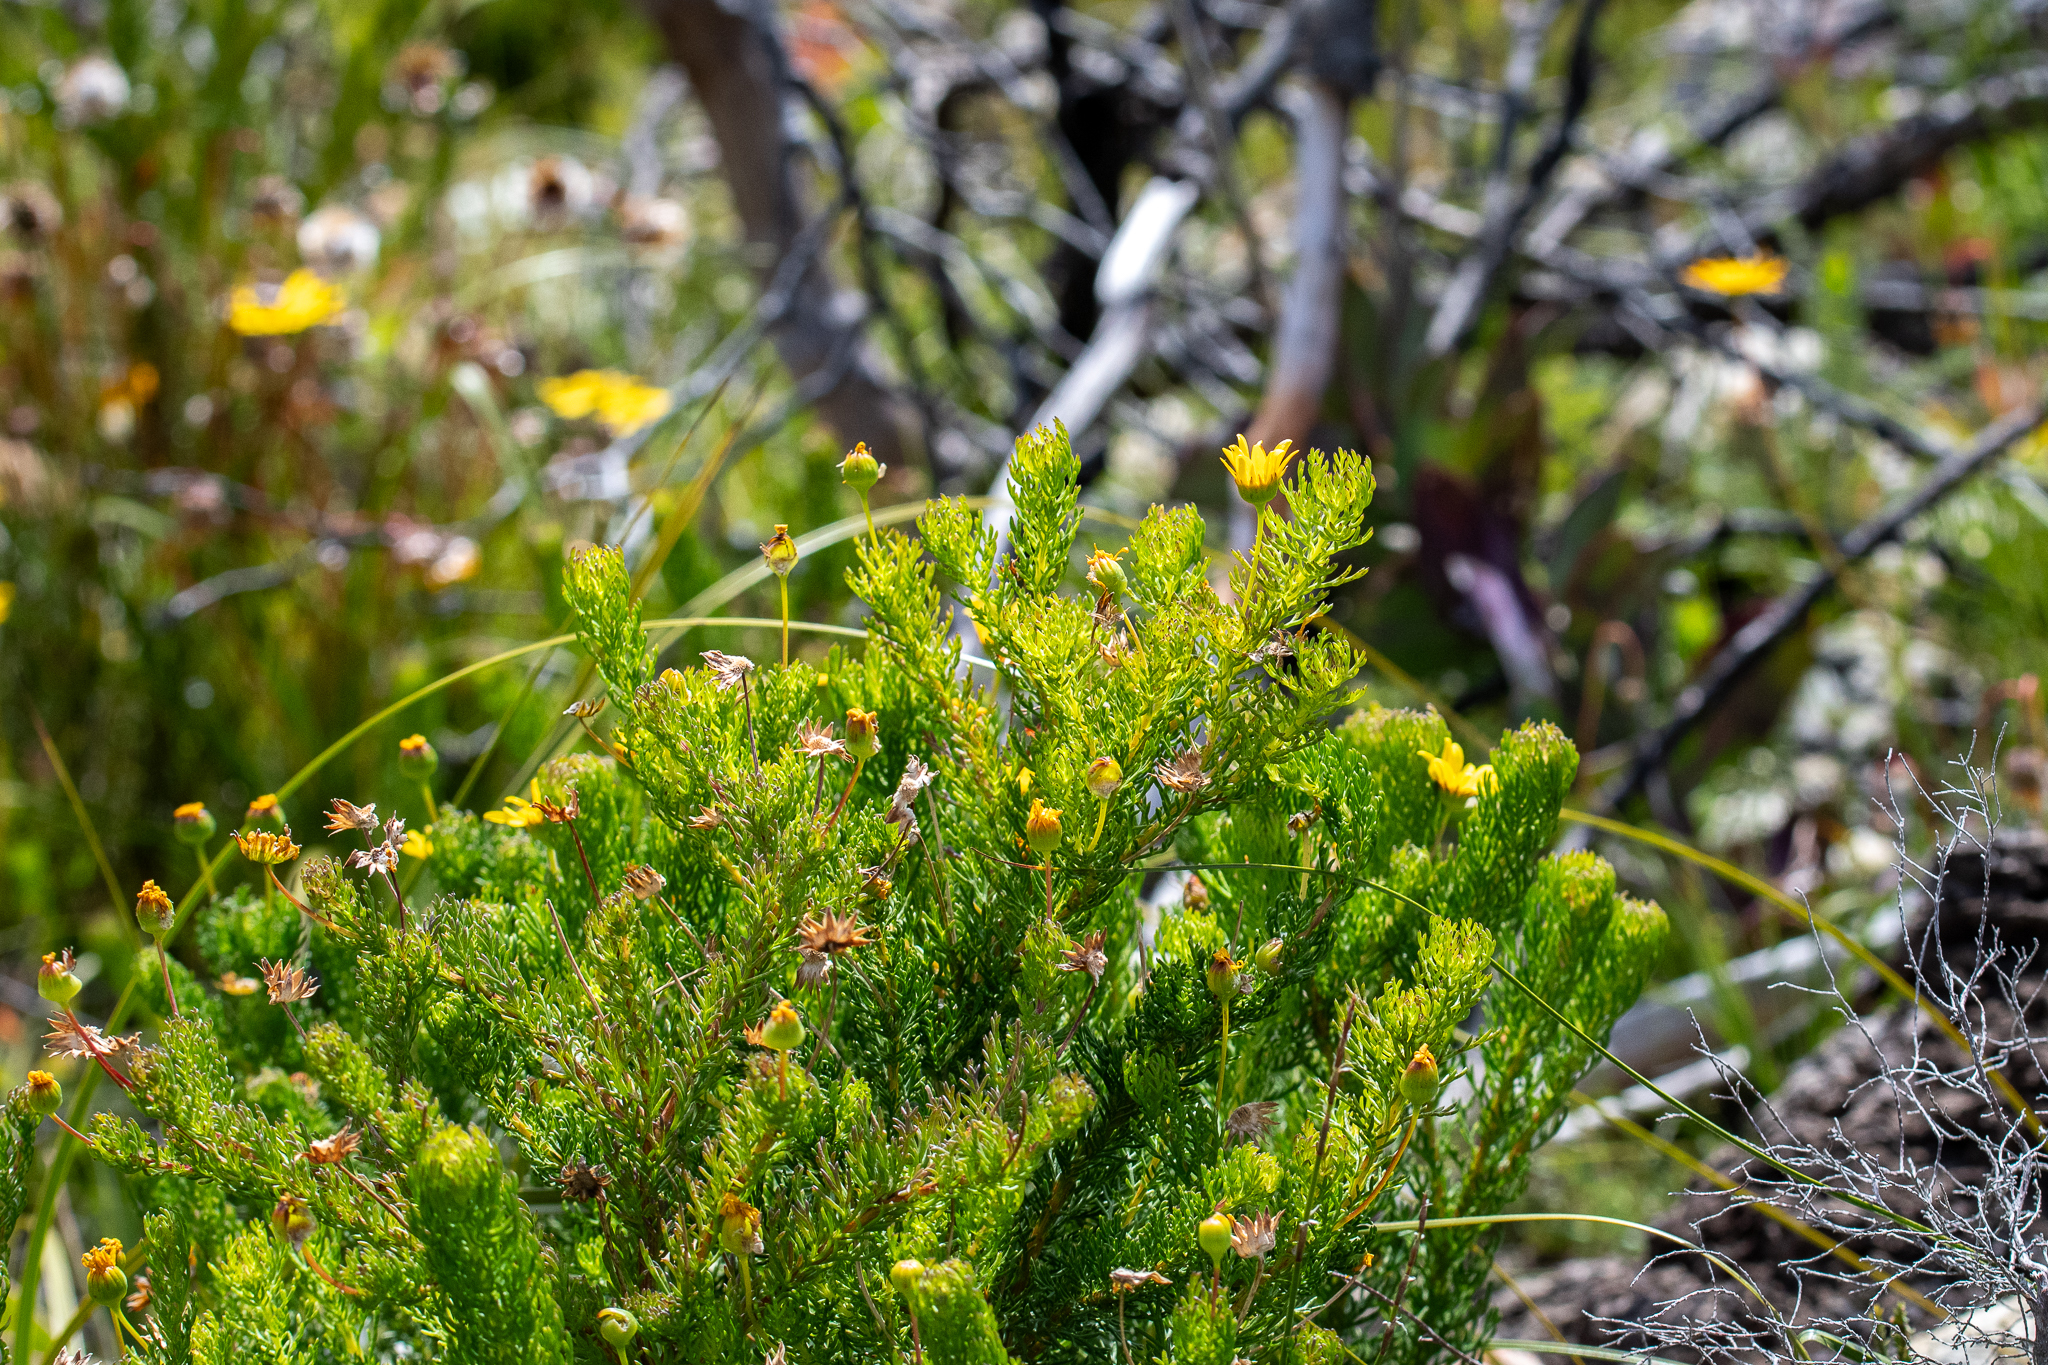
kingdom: Plantae
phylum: Tracheophyta
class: Magnoliopsida
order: Asterales
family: Asteraceae
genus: Euryops
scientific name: Euryops abrotanifolius
